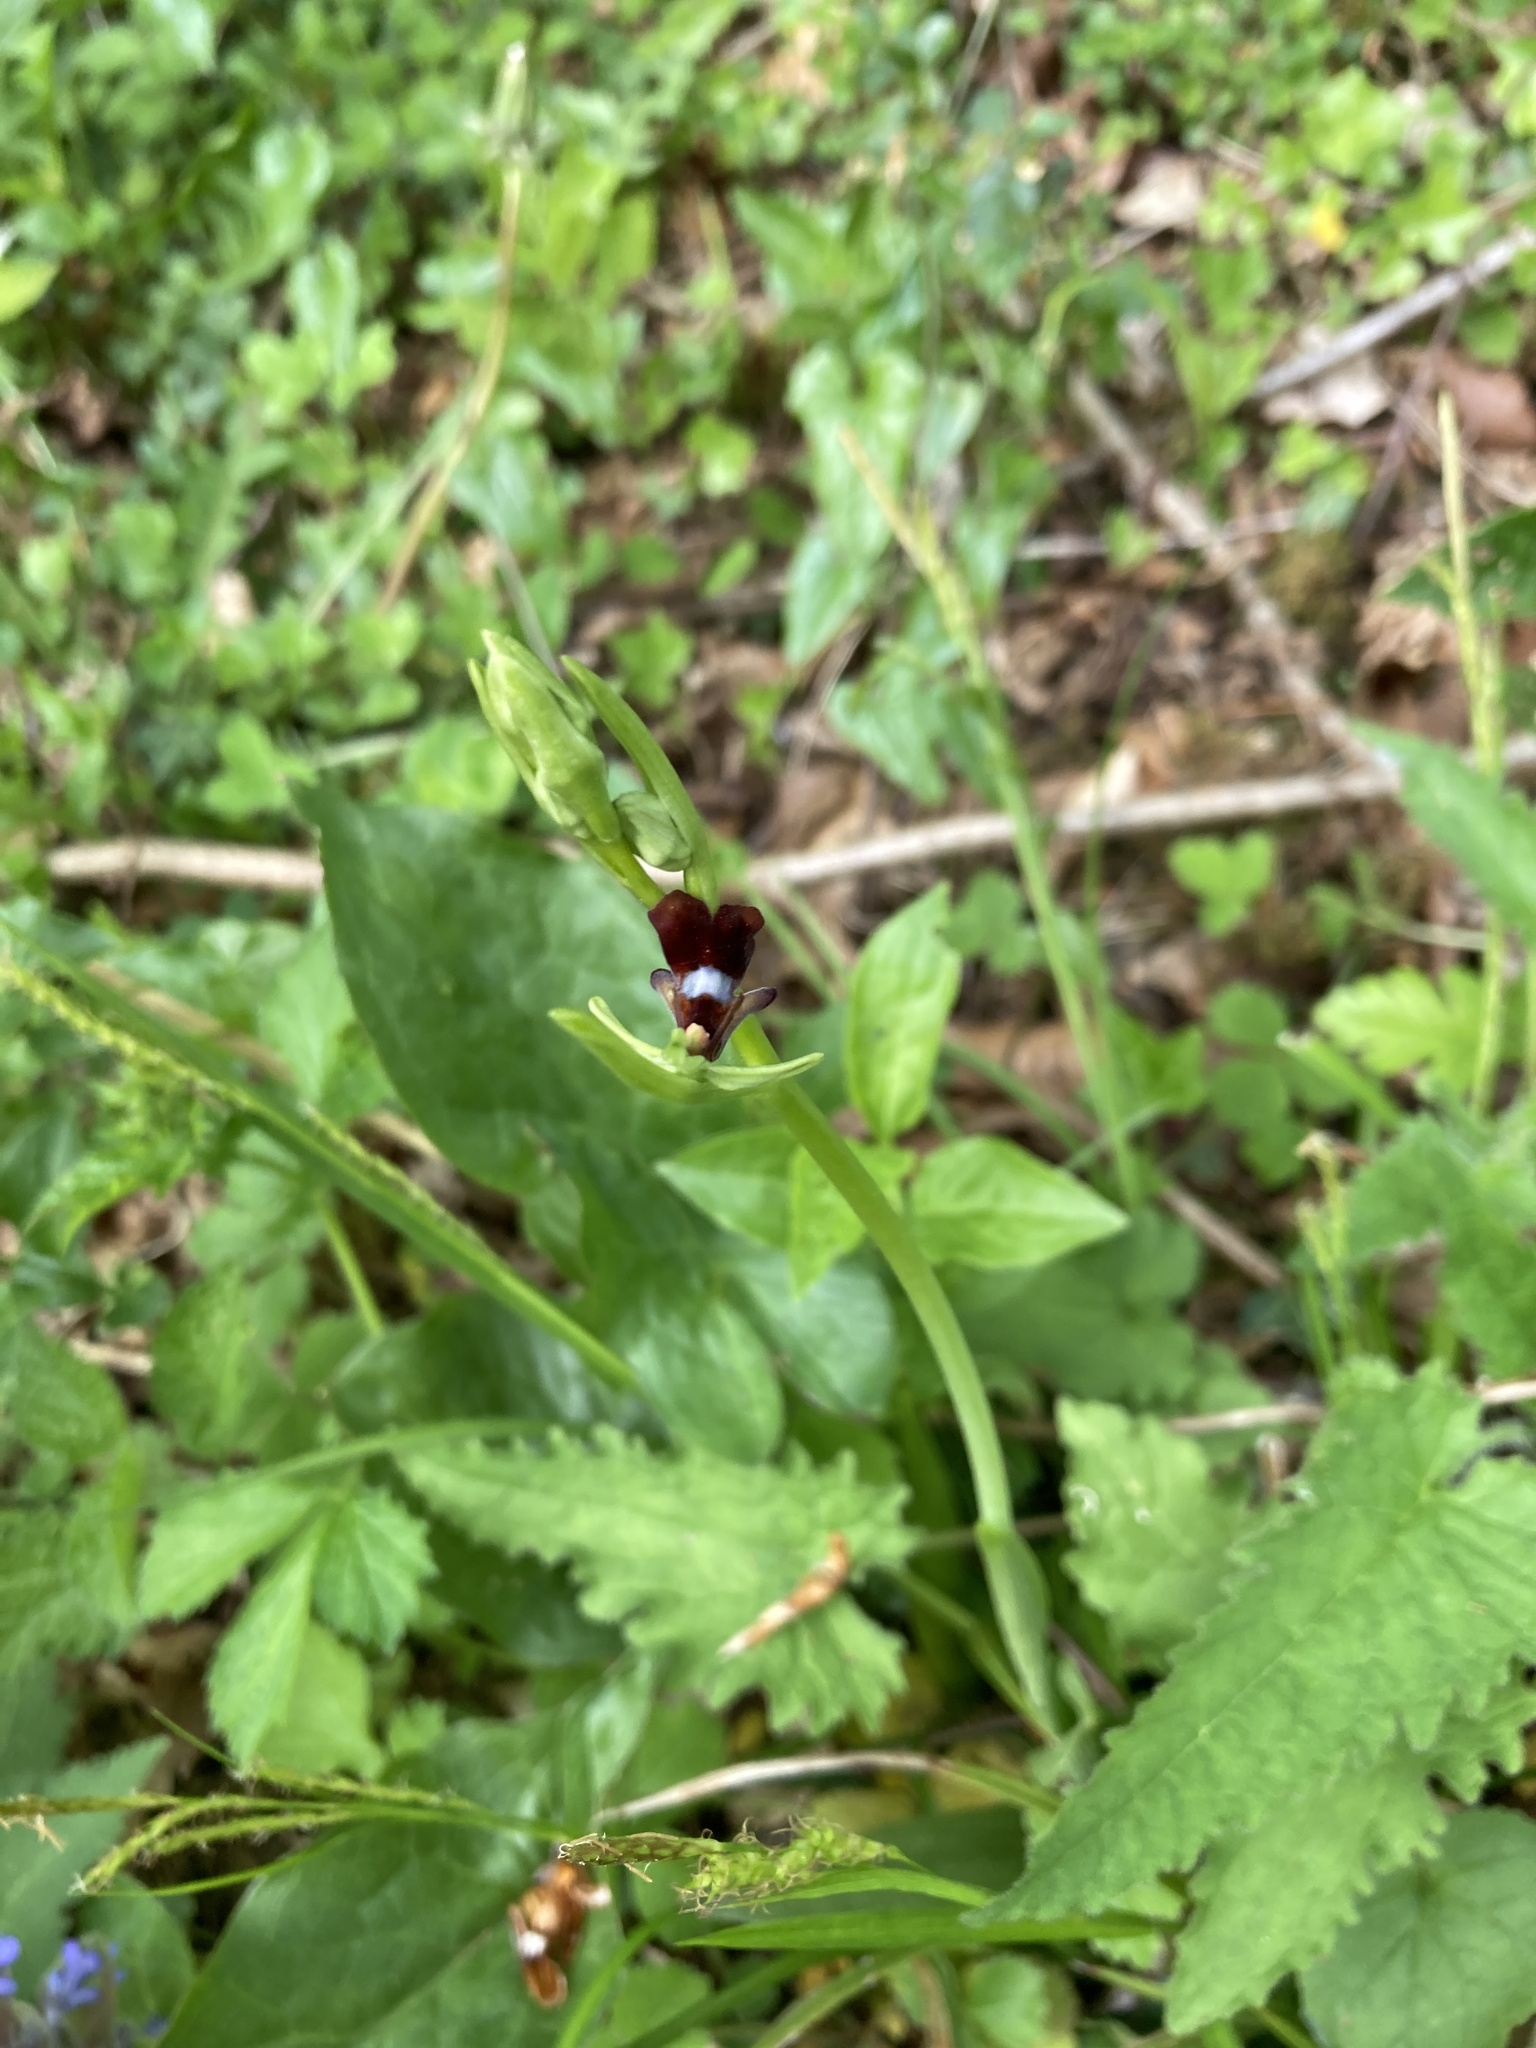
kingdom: Plantae
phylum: Tracheophyta
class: Liliopsida
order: Asparagales
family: Orchidaceae
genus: Ophrys
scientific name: Ophrys insectifera
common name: Fly orchid
